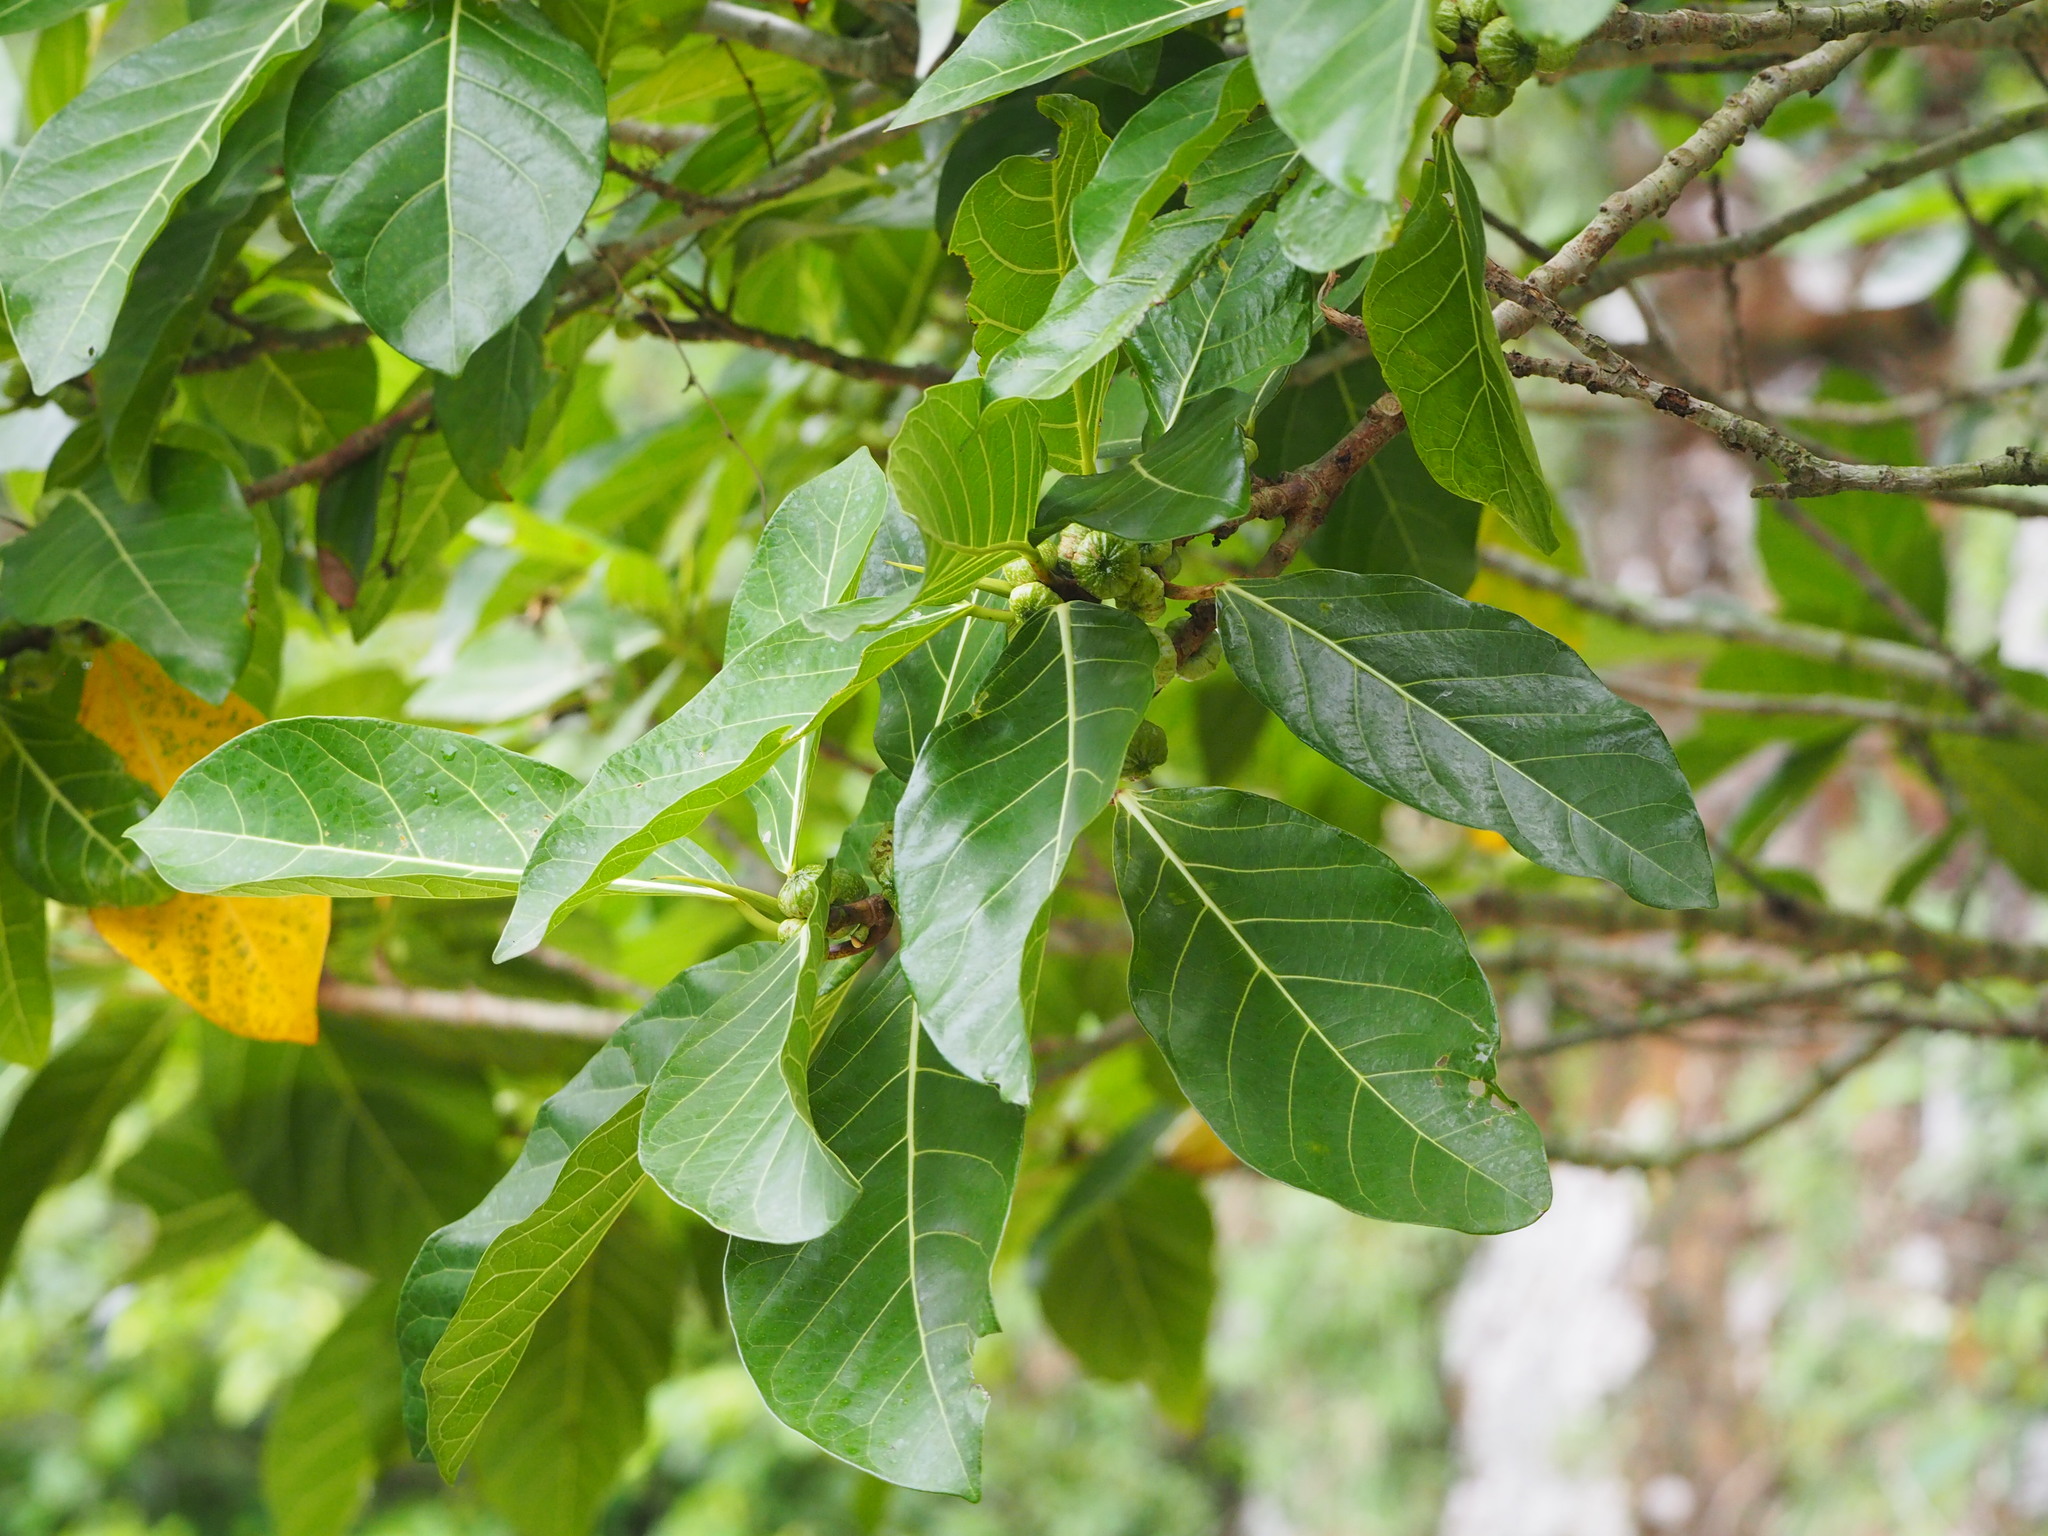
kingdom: Plantae
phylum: Tracheophyta
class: Magnoliopsida
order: Rosales
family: Moraceae
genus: Ficus
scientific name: Ficus septica
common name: Septic fig
